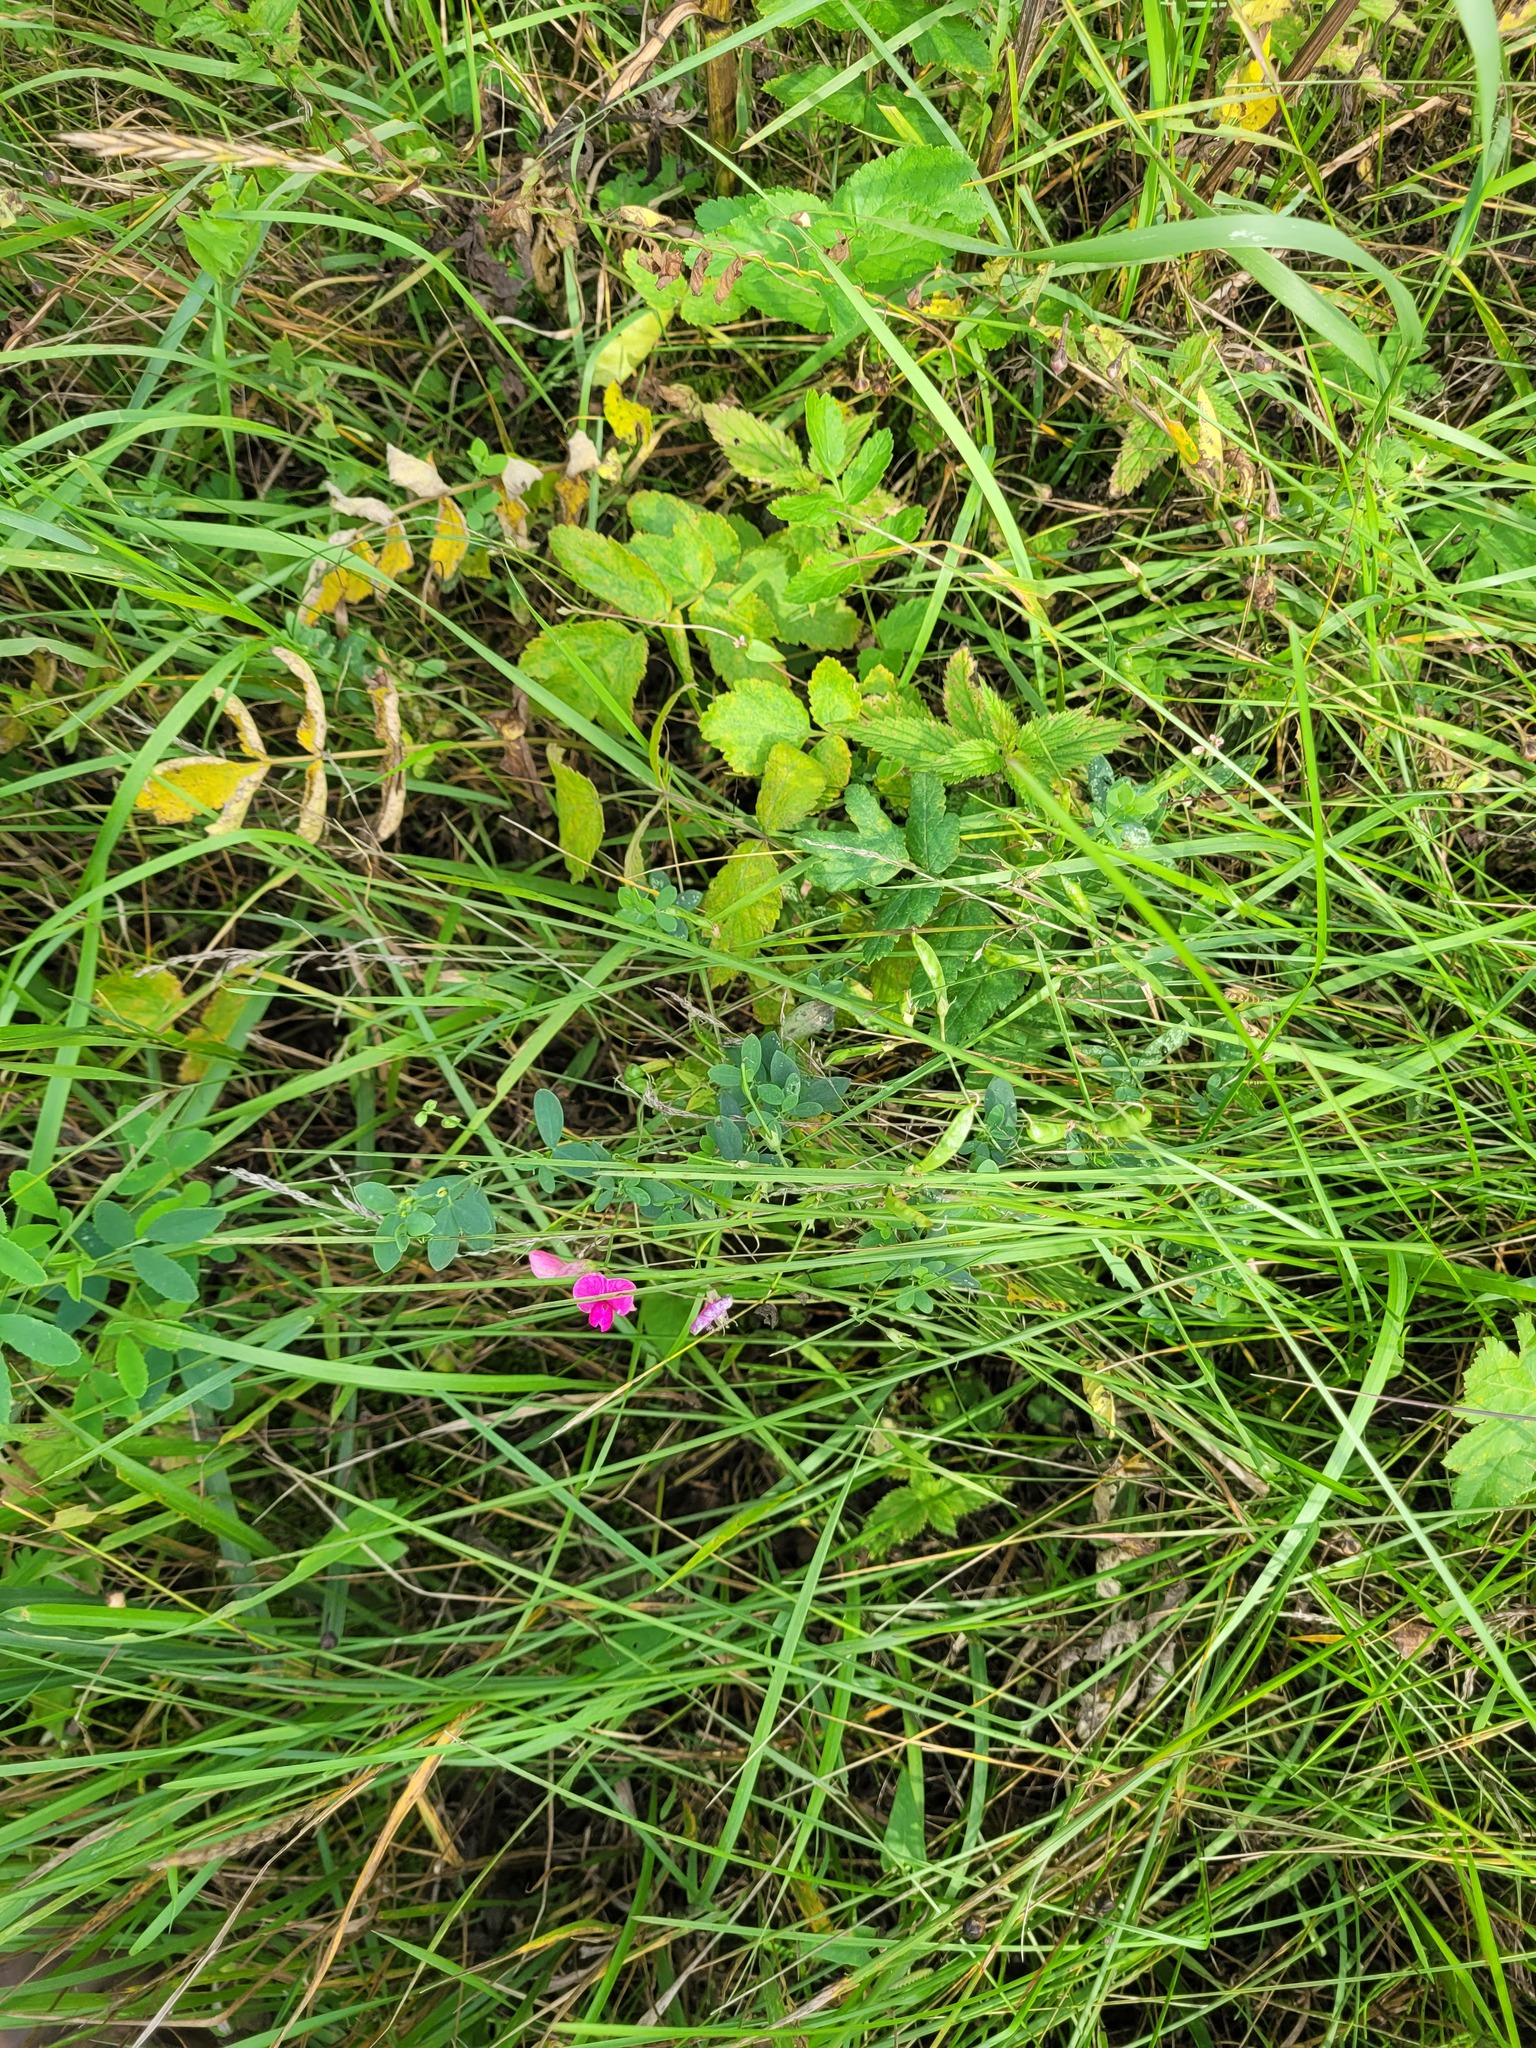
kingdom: Plantae
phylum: Tracheophyta
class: Magnoliopsida
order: Fabales
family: Fabaceae
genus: Lathyrus
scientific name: Lathyrus tuberosus
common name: Tuberous pea
